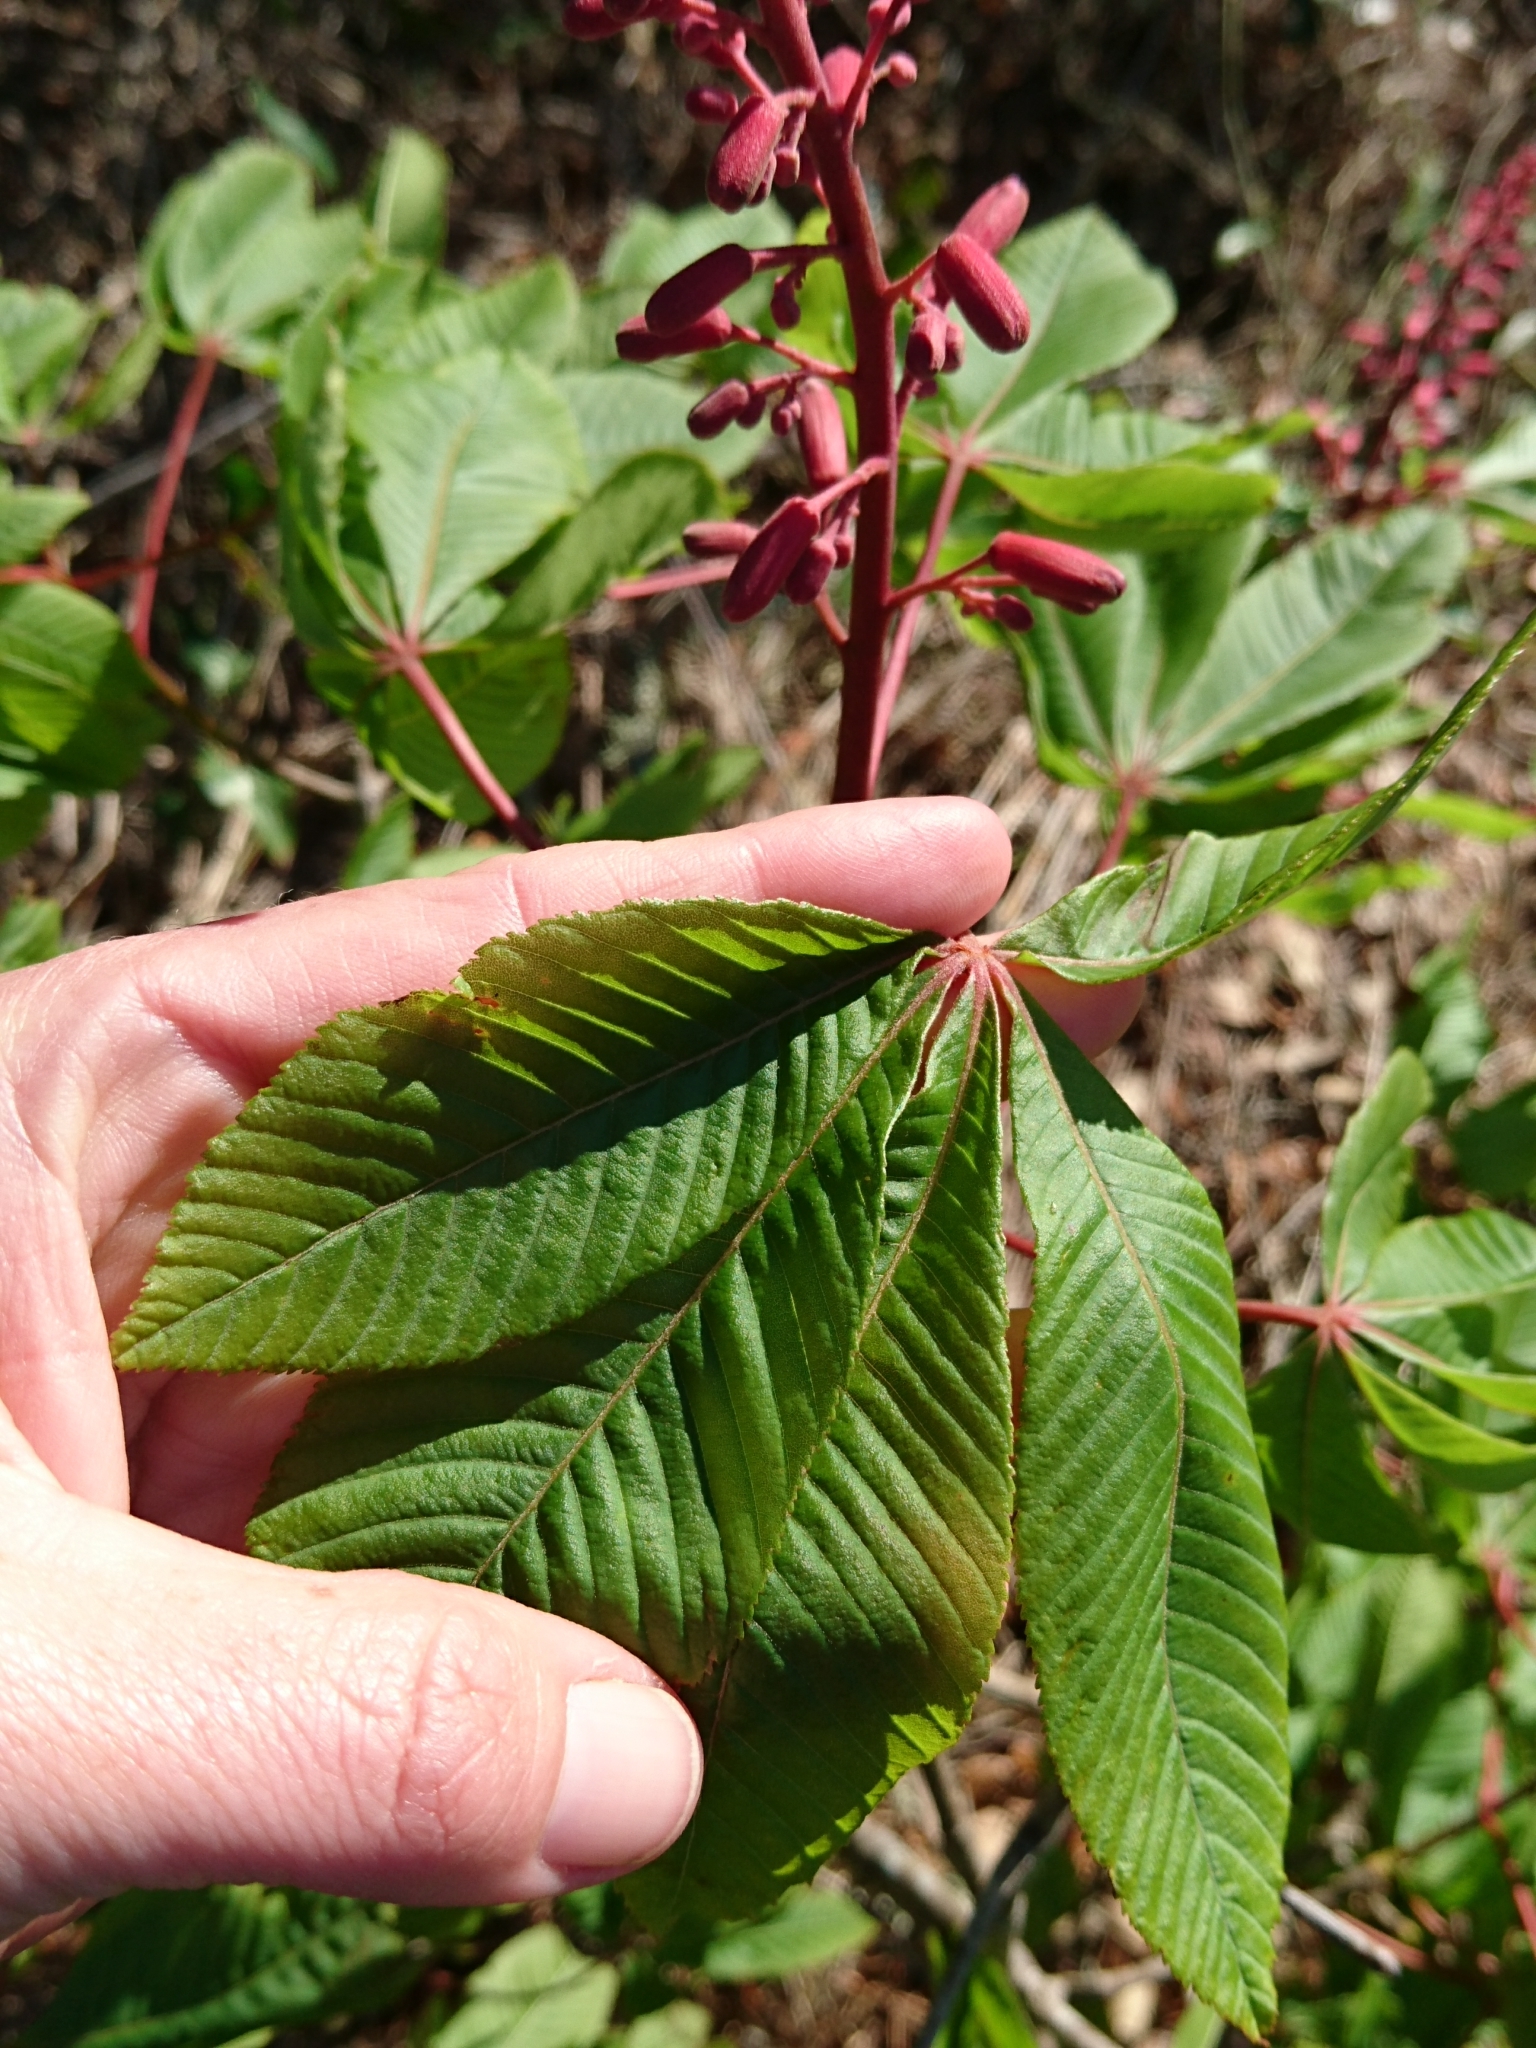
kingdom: Plantae
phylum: Tracheophyta
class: Magnoliopsida
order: Sapindales
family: Sapindaceae
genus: Aesculus
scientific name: Aesculus pavia
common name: Red buckeye
